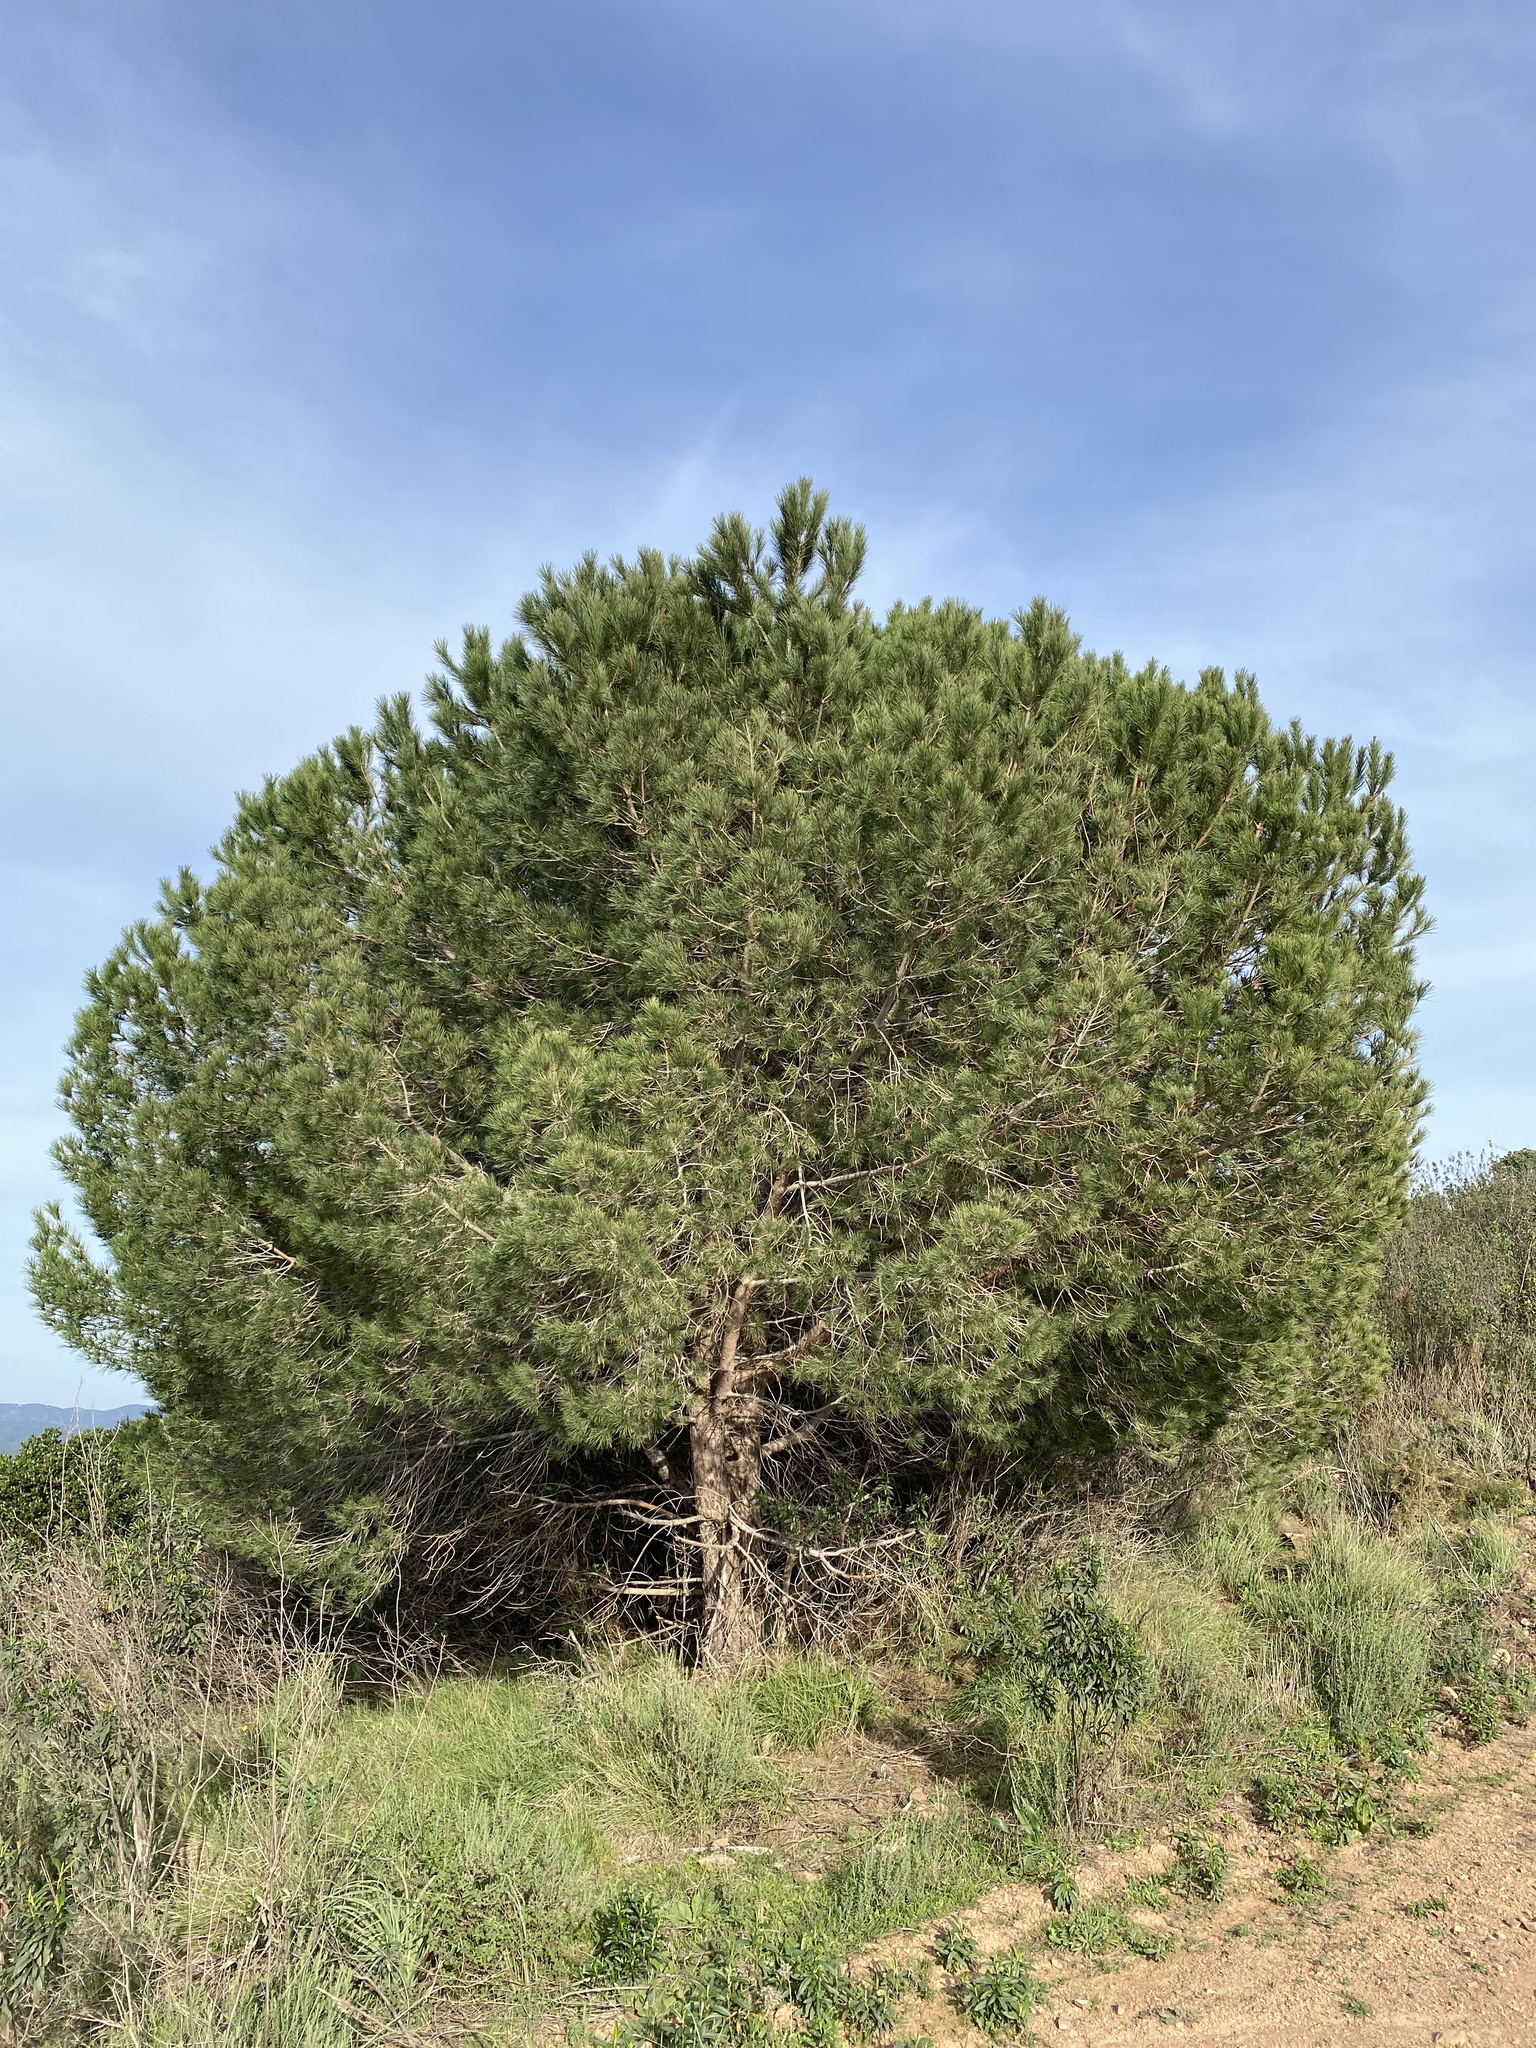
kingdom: Plantae
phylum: Tracheophyta
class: Pinopsida
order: Pinales
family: Pinaceae
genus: Pinus
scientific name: Pinus pinea
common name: Italian stone pine
